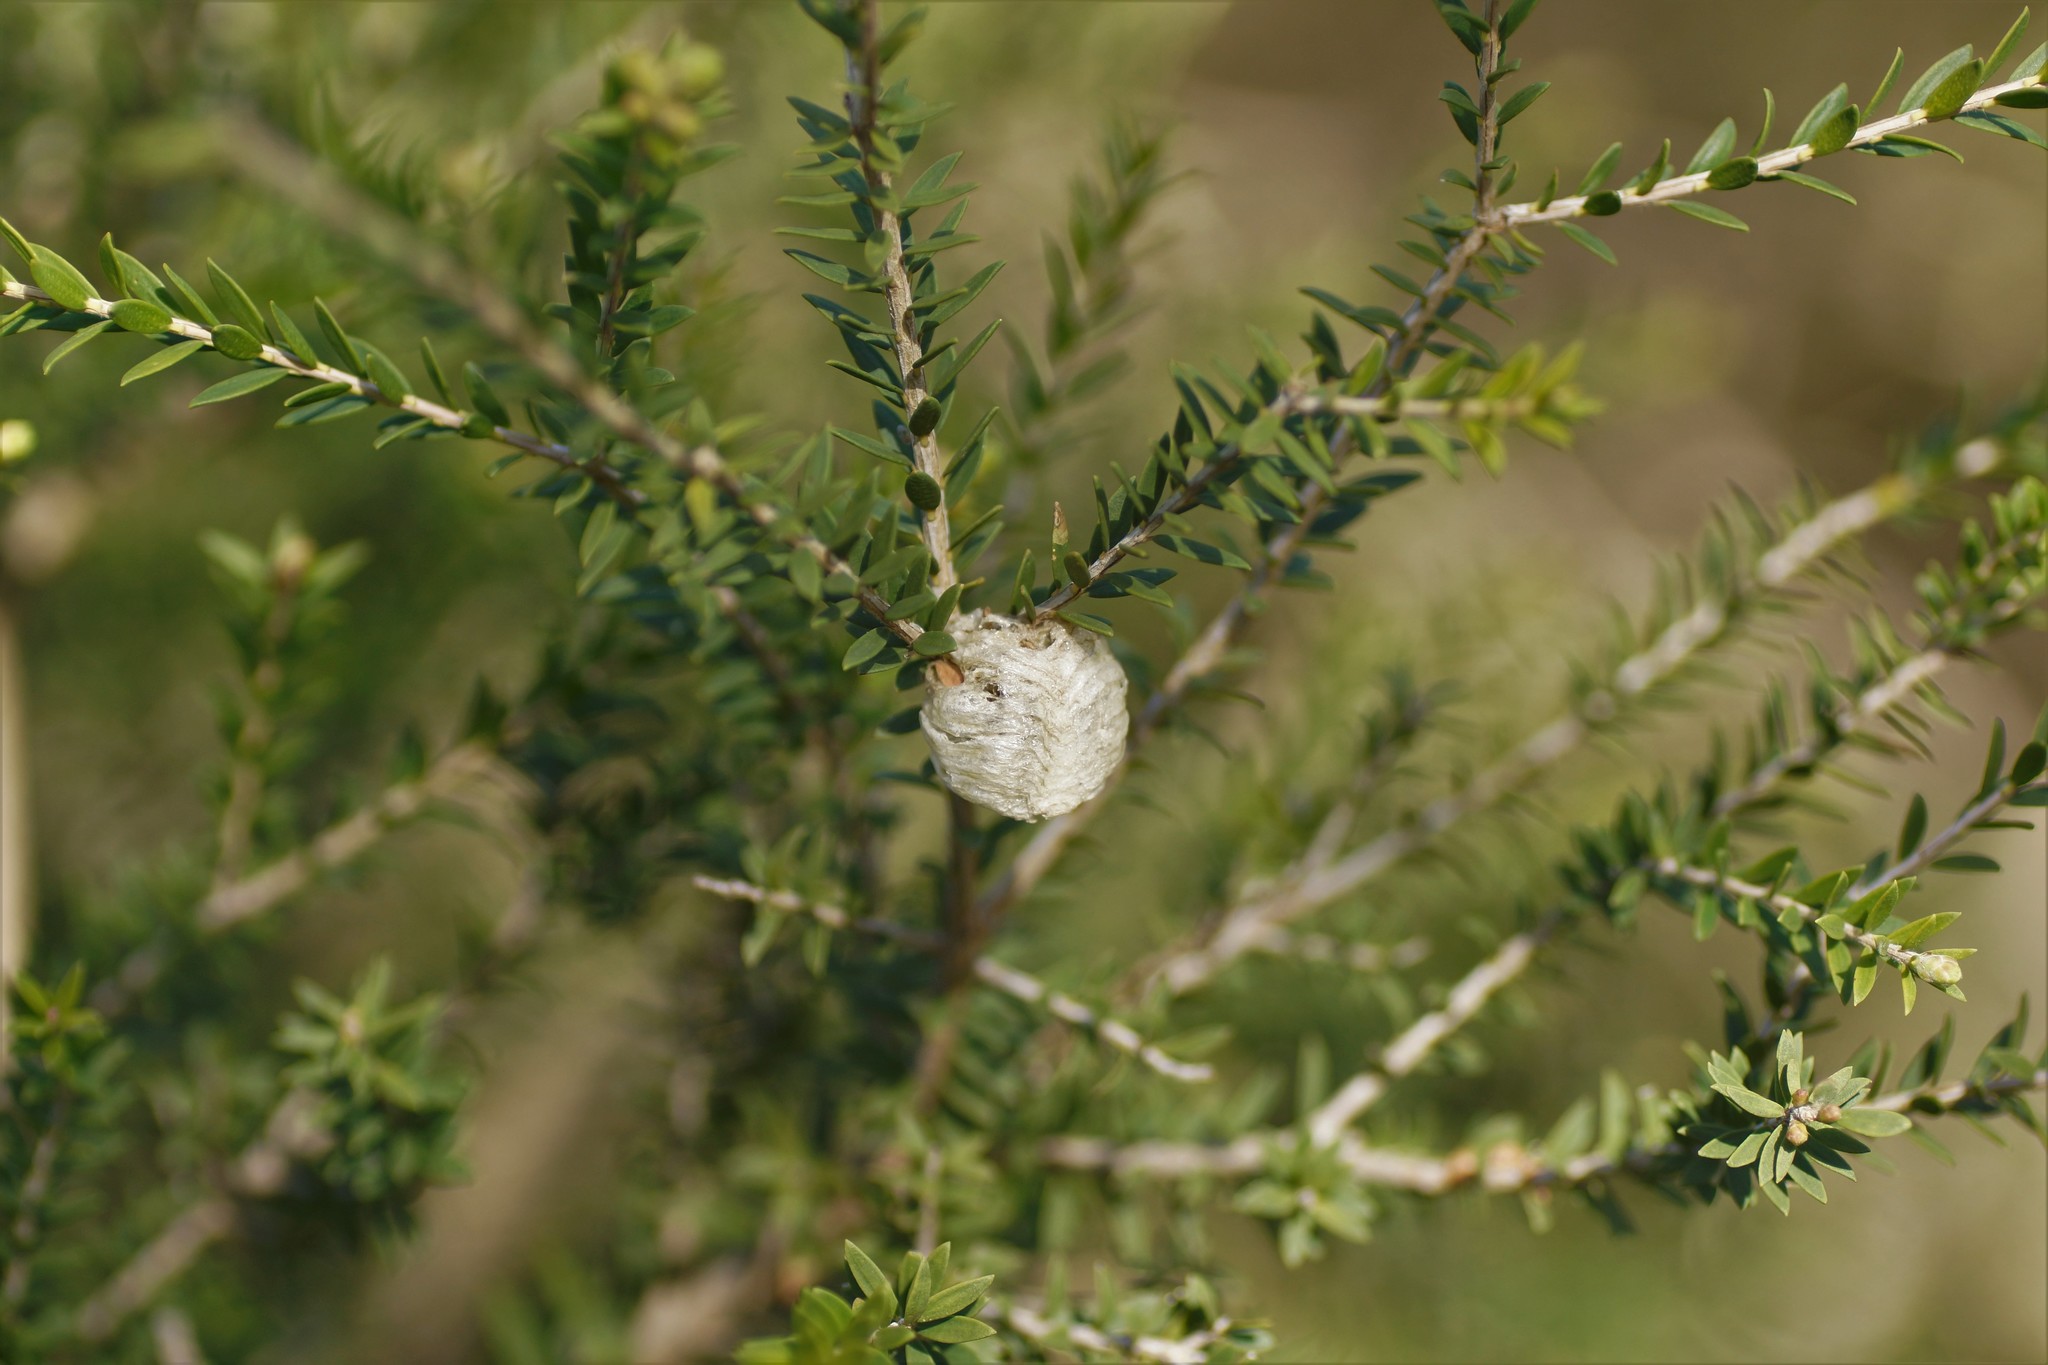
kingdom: Animalia
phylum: Arthropoda
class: Insecta
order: Mantodea
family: Mantidae
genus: Archimantis
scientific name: Archimantis sobrina
